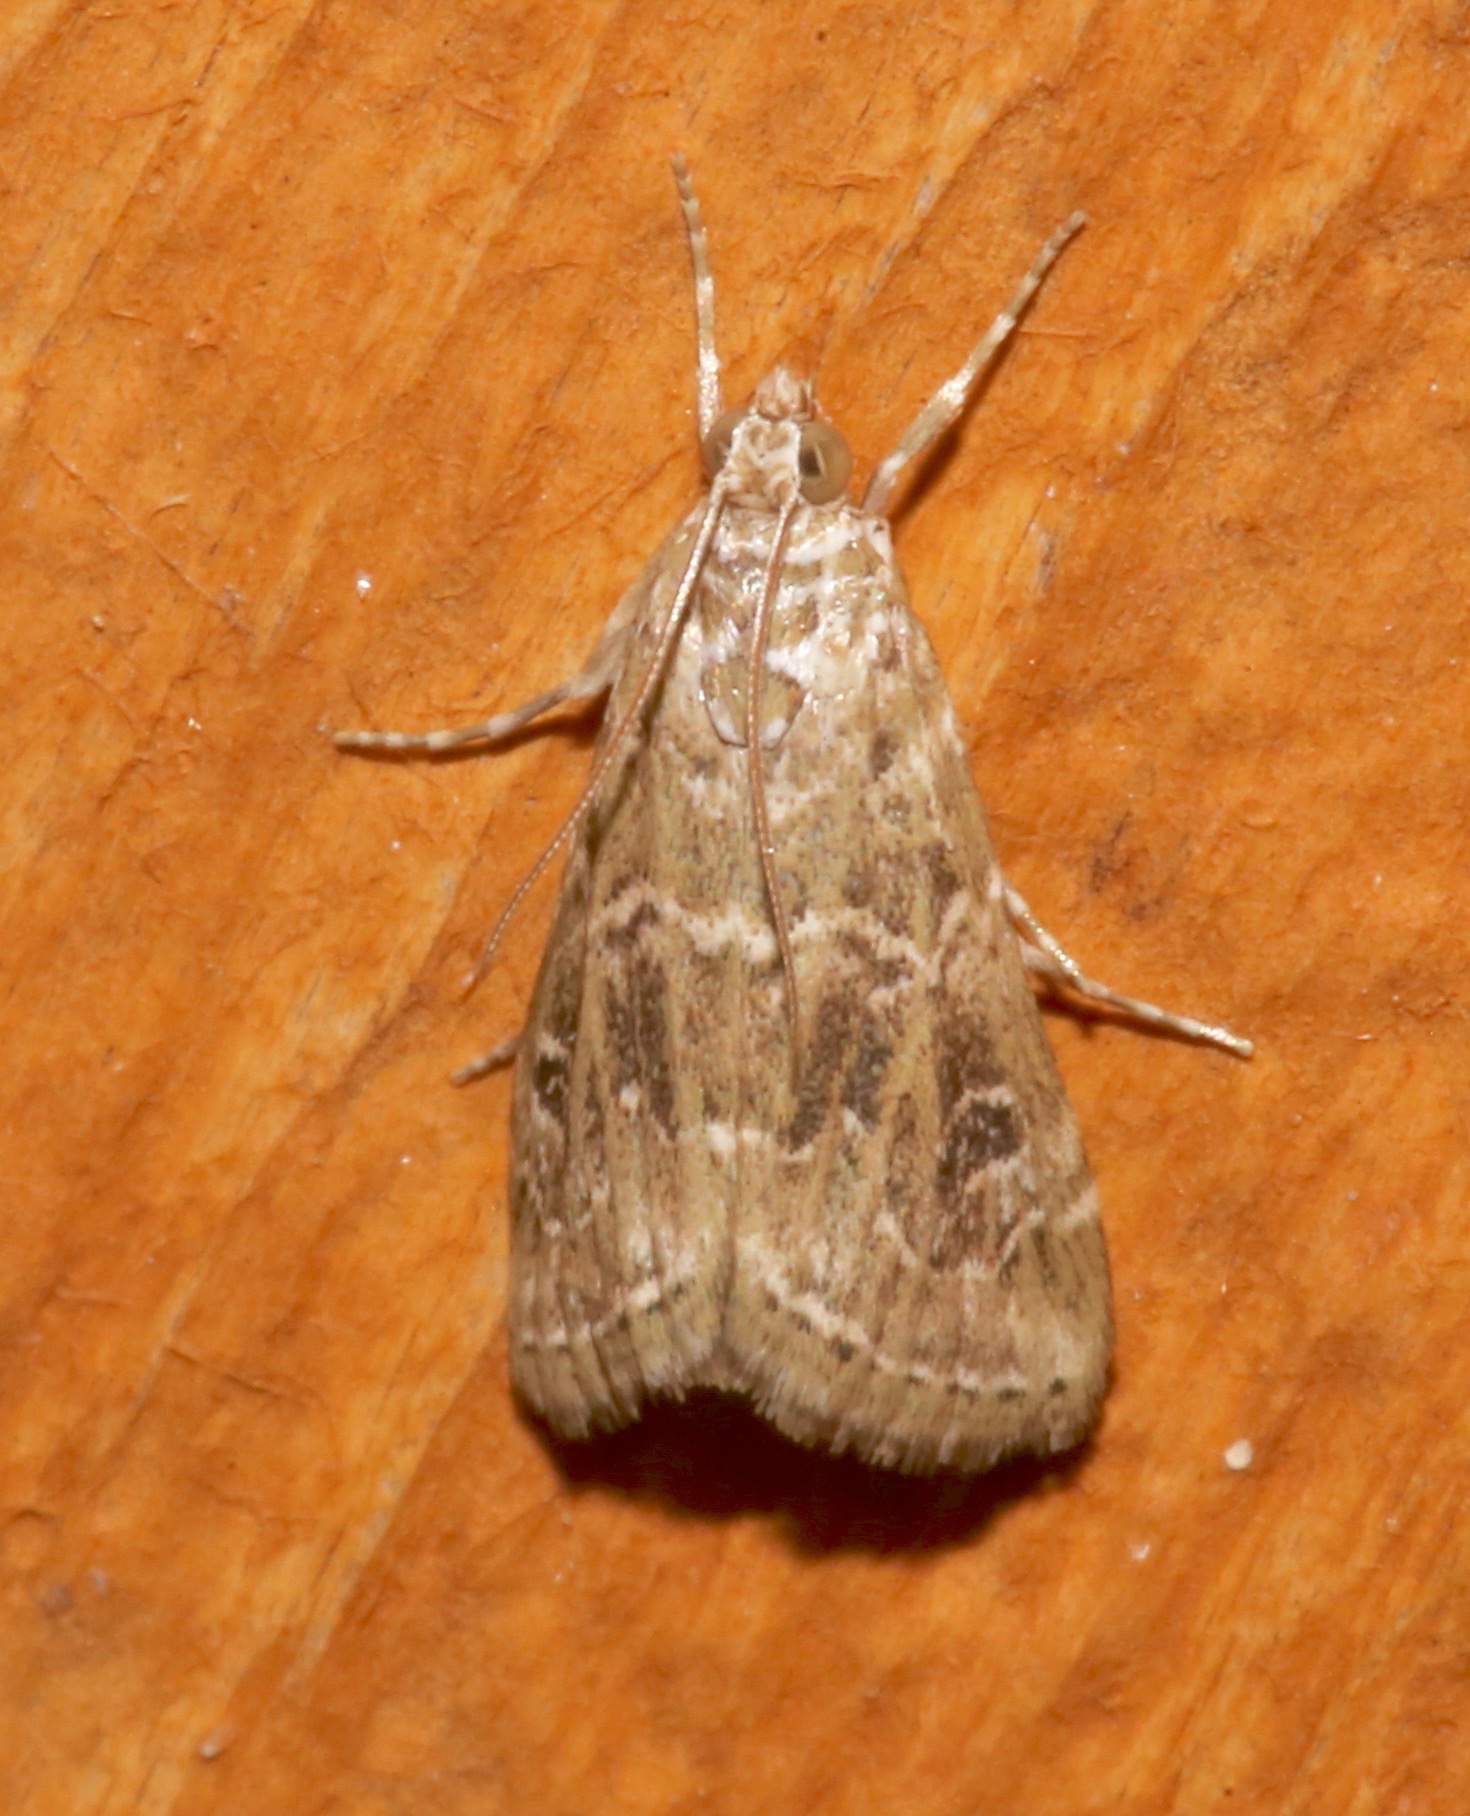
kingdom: Animalia
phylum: Arthropoda
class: Insecta
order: Lepidoptera
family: Crambidae
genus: Hellula
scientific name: Hellula rogatalis
